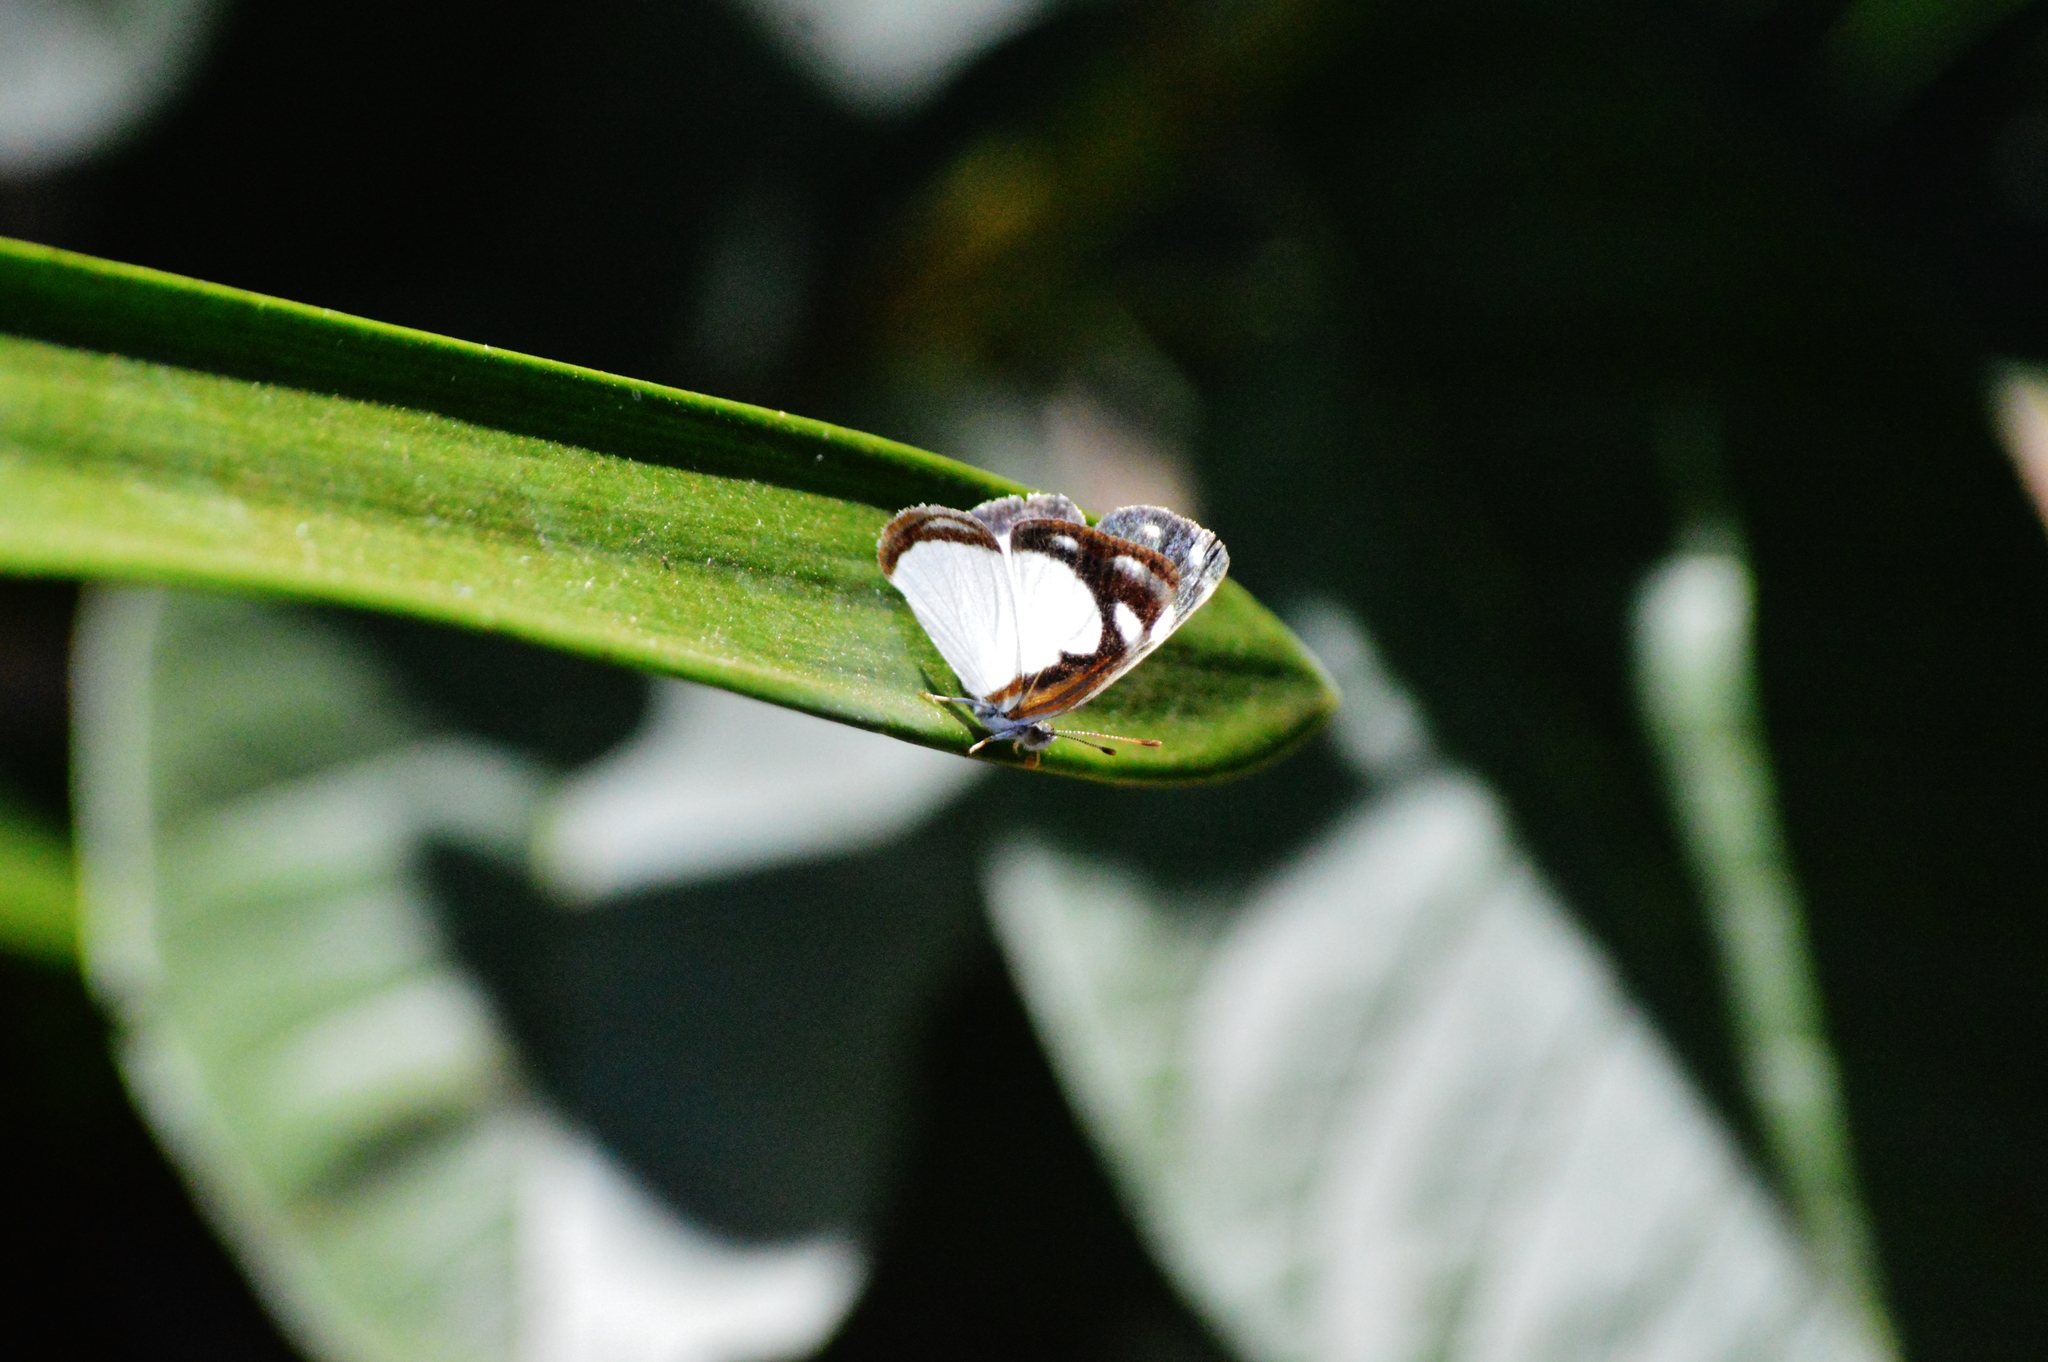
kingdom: Animalia
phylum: Arthropoda
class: Insecta
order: Lepidoptera
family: Nymphalidae
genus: Dynamine
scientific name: Dynamine agacles
